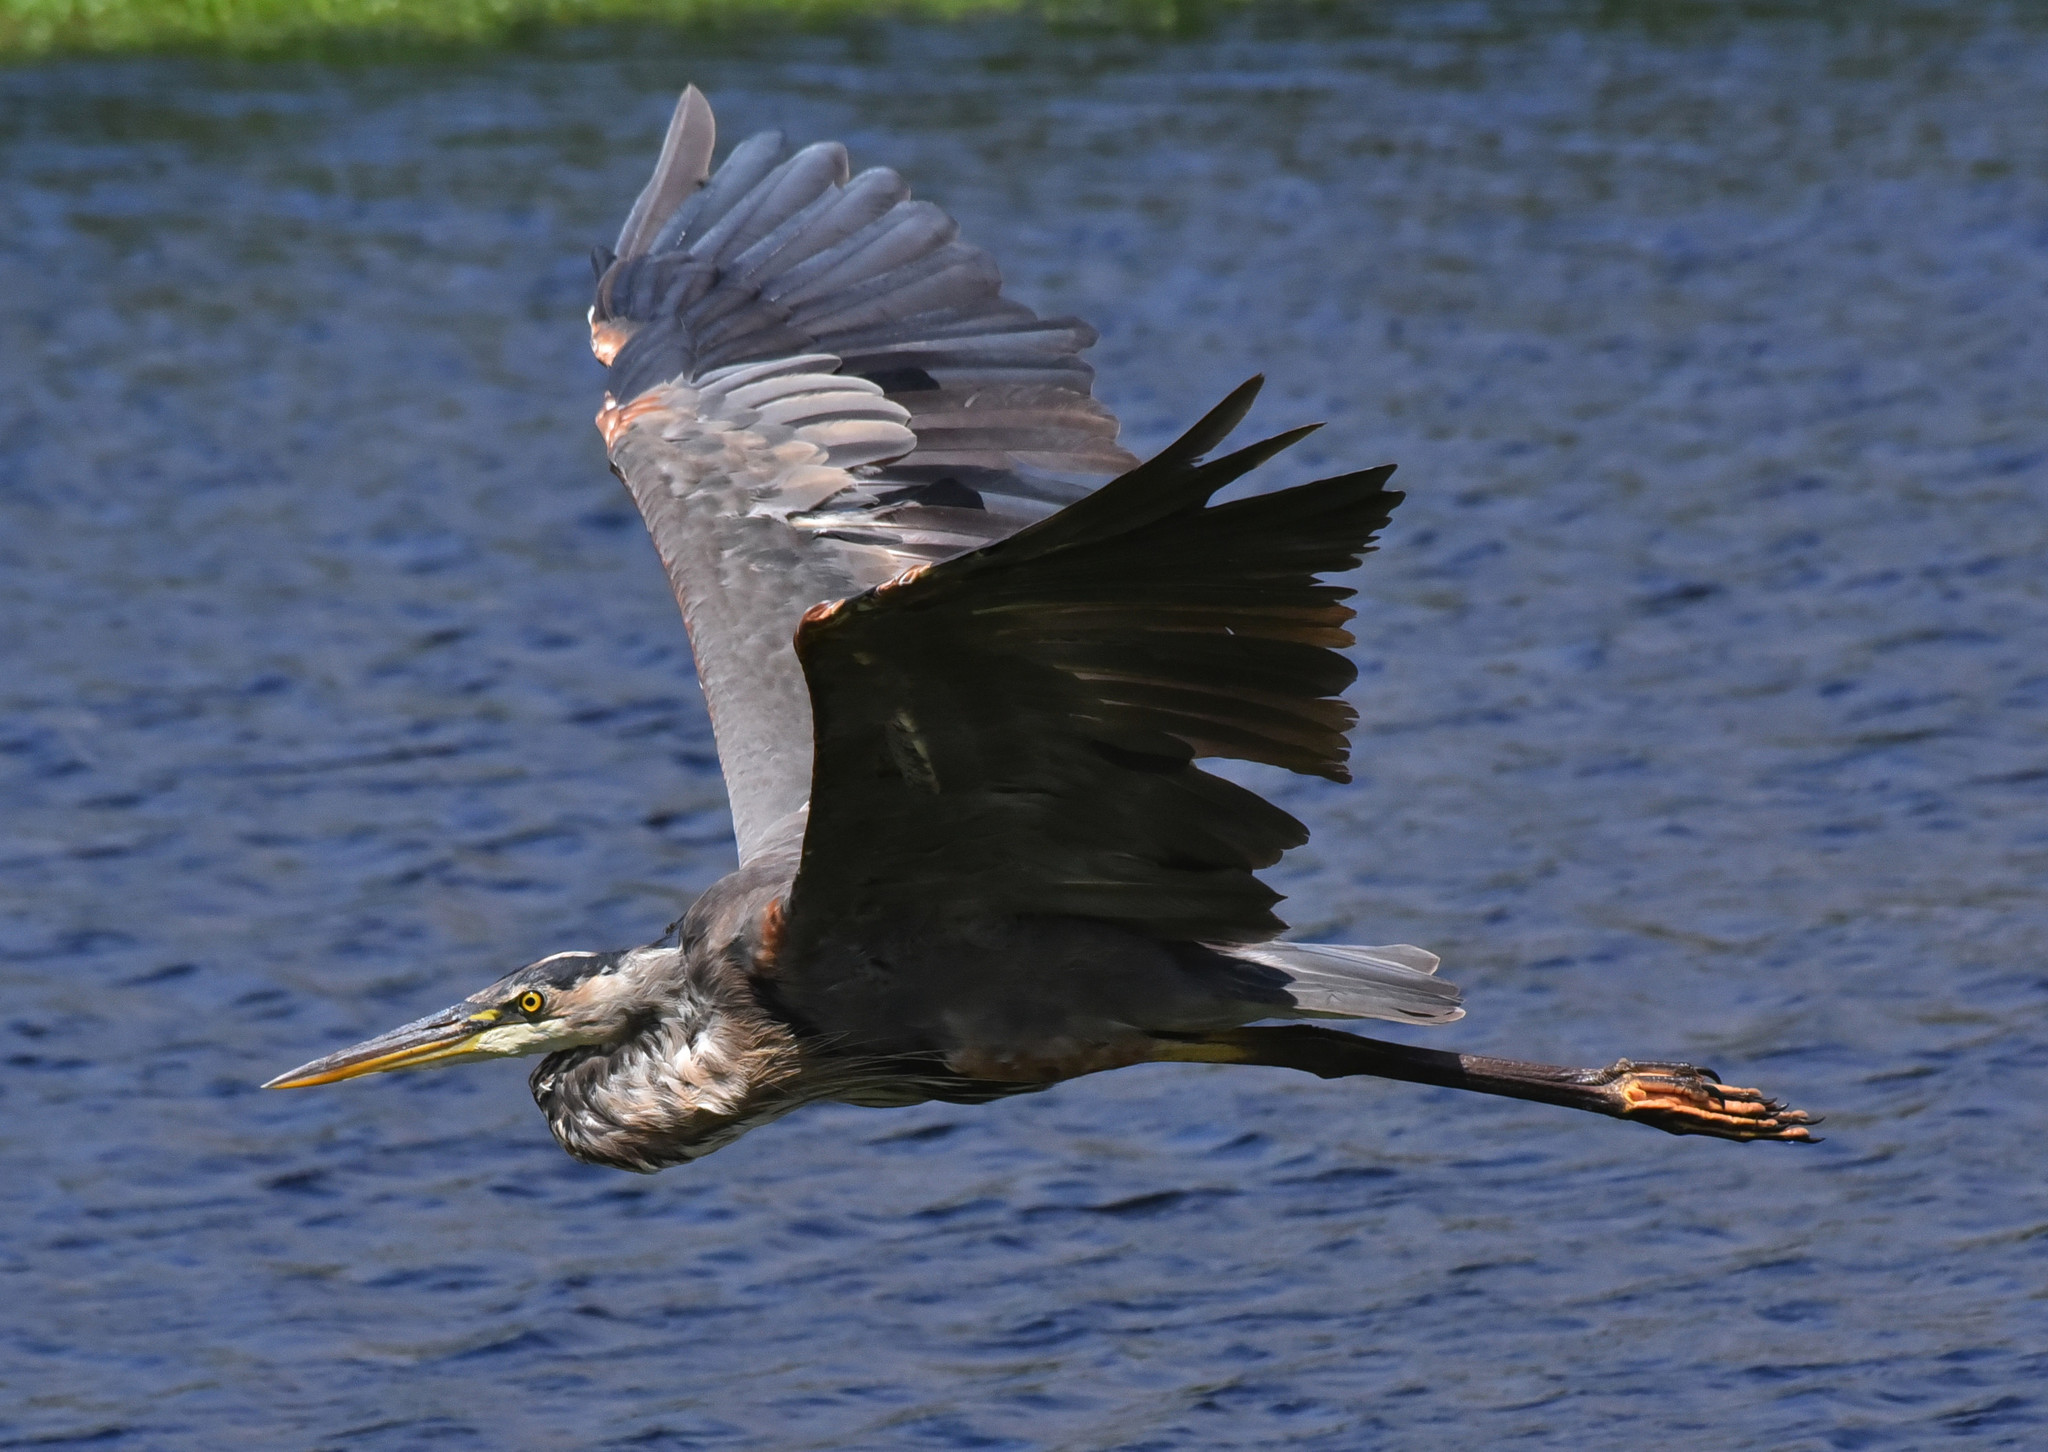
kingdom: Animalia
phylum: Chordata
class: Aves
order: Pelecaniformes
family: Ardeidae
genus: Ardea
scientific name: Ardea herodias
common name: Great blue heron
